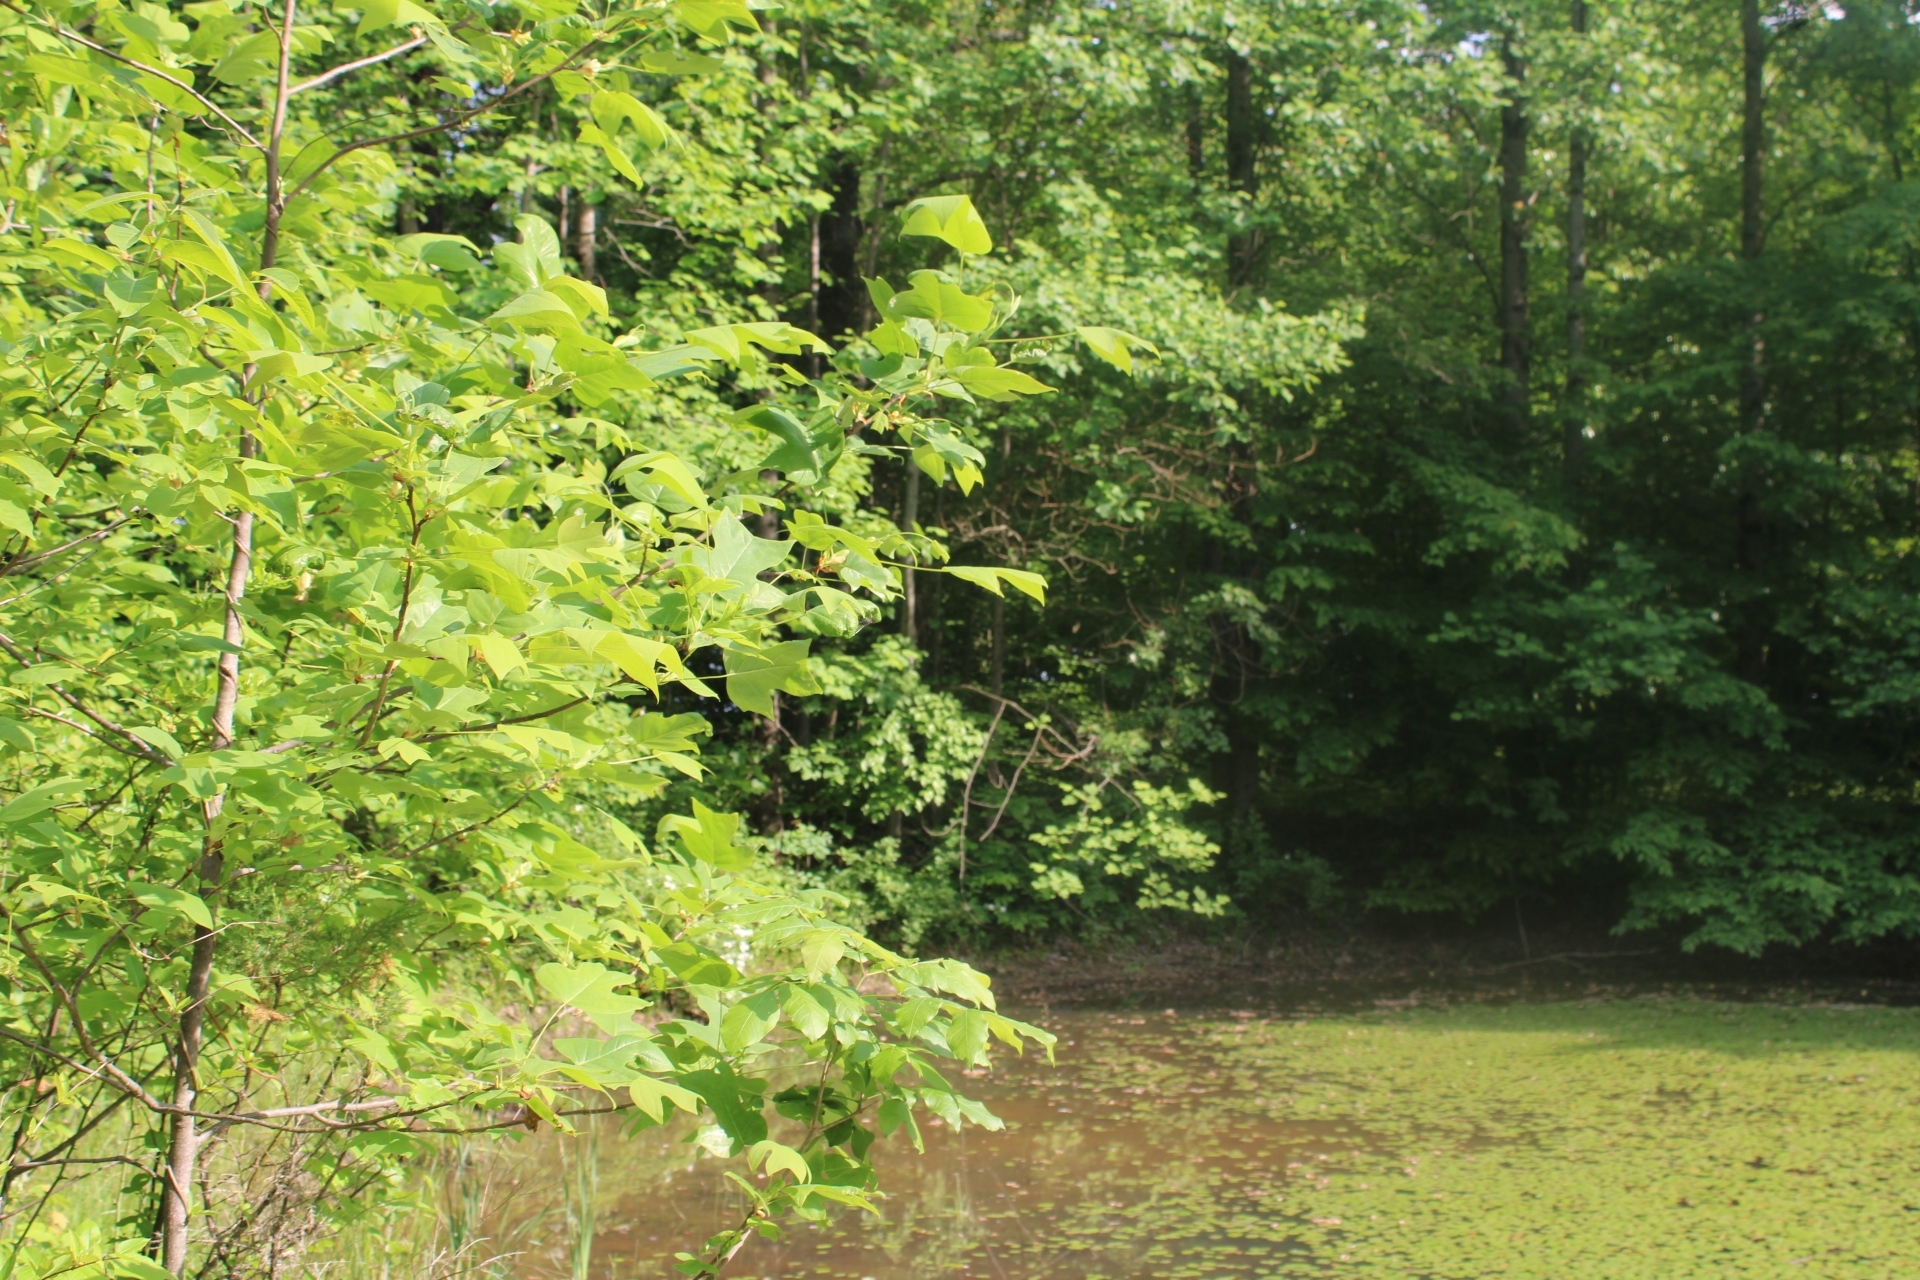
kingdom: Plantae
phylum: Tracheophyta
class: Magnoliopsida
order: Magnoliales
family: Magnoliaceae
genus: Liriodendron
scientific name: Liriodendron tulipifera
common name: Tulip tree
